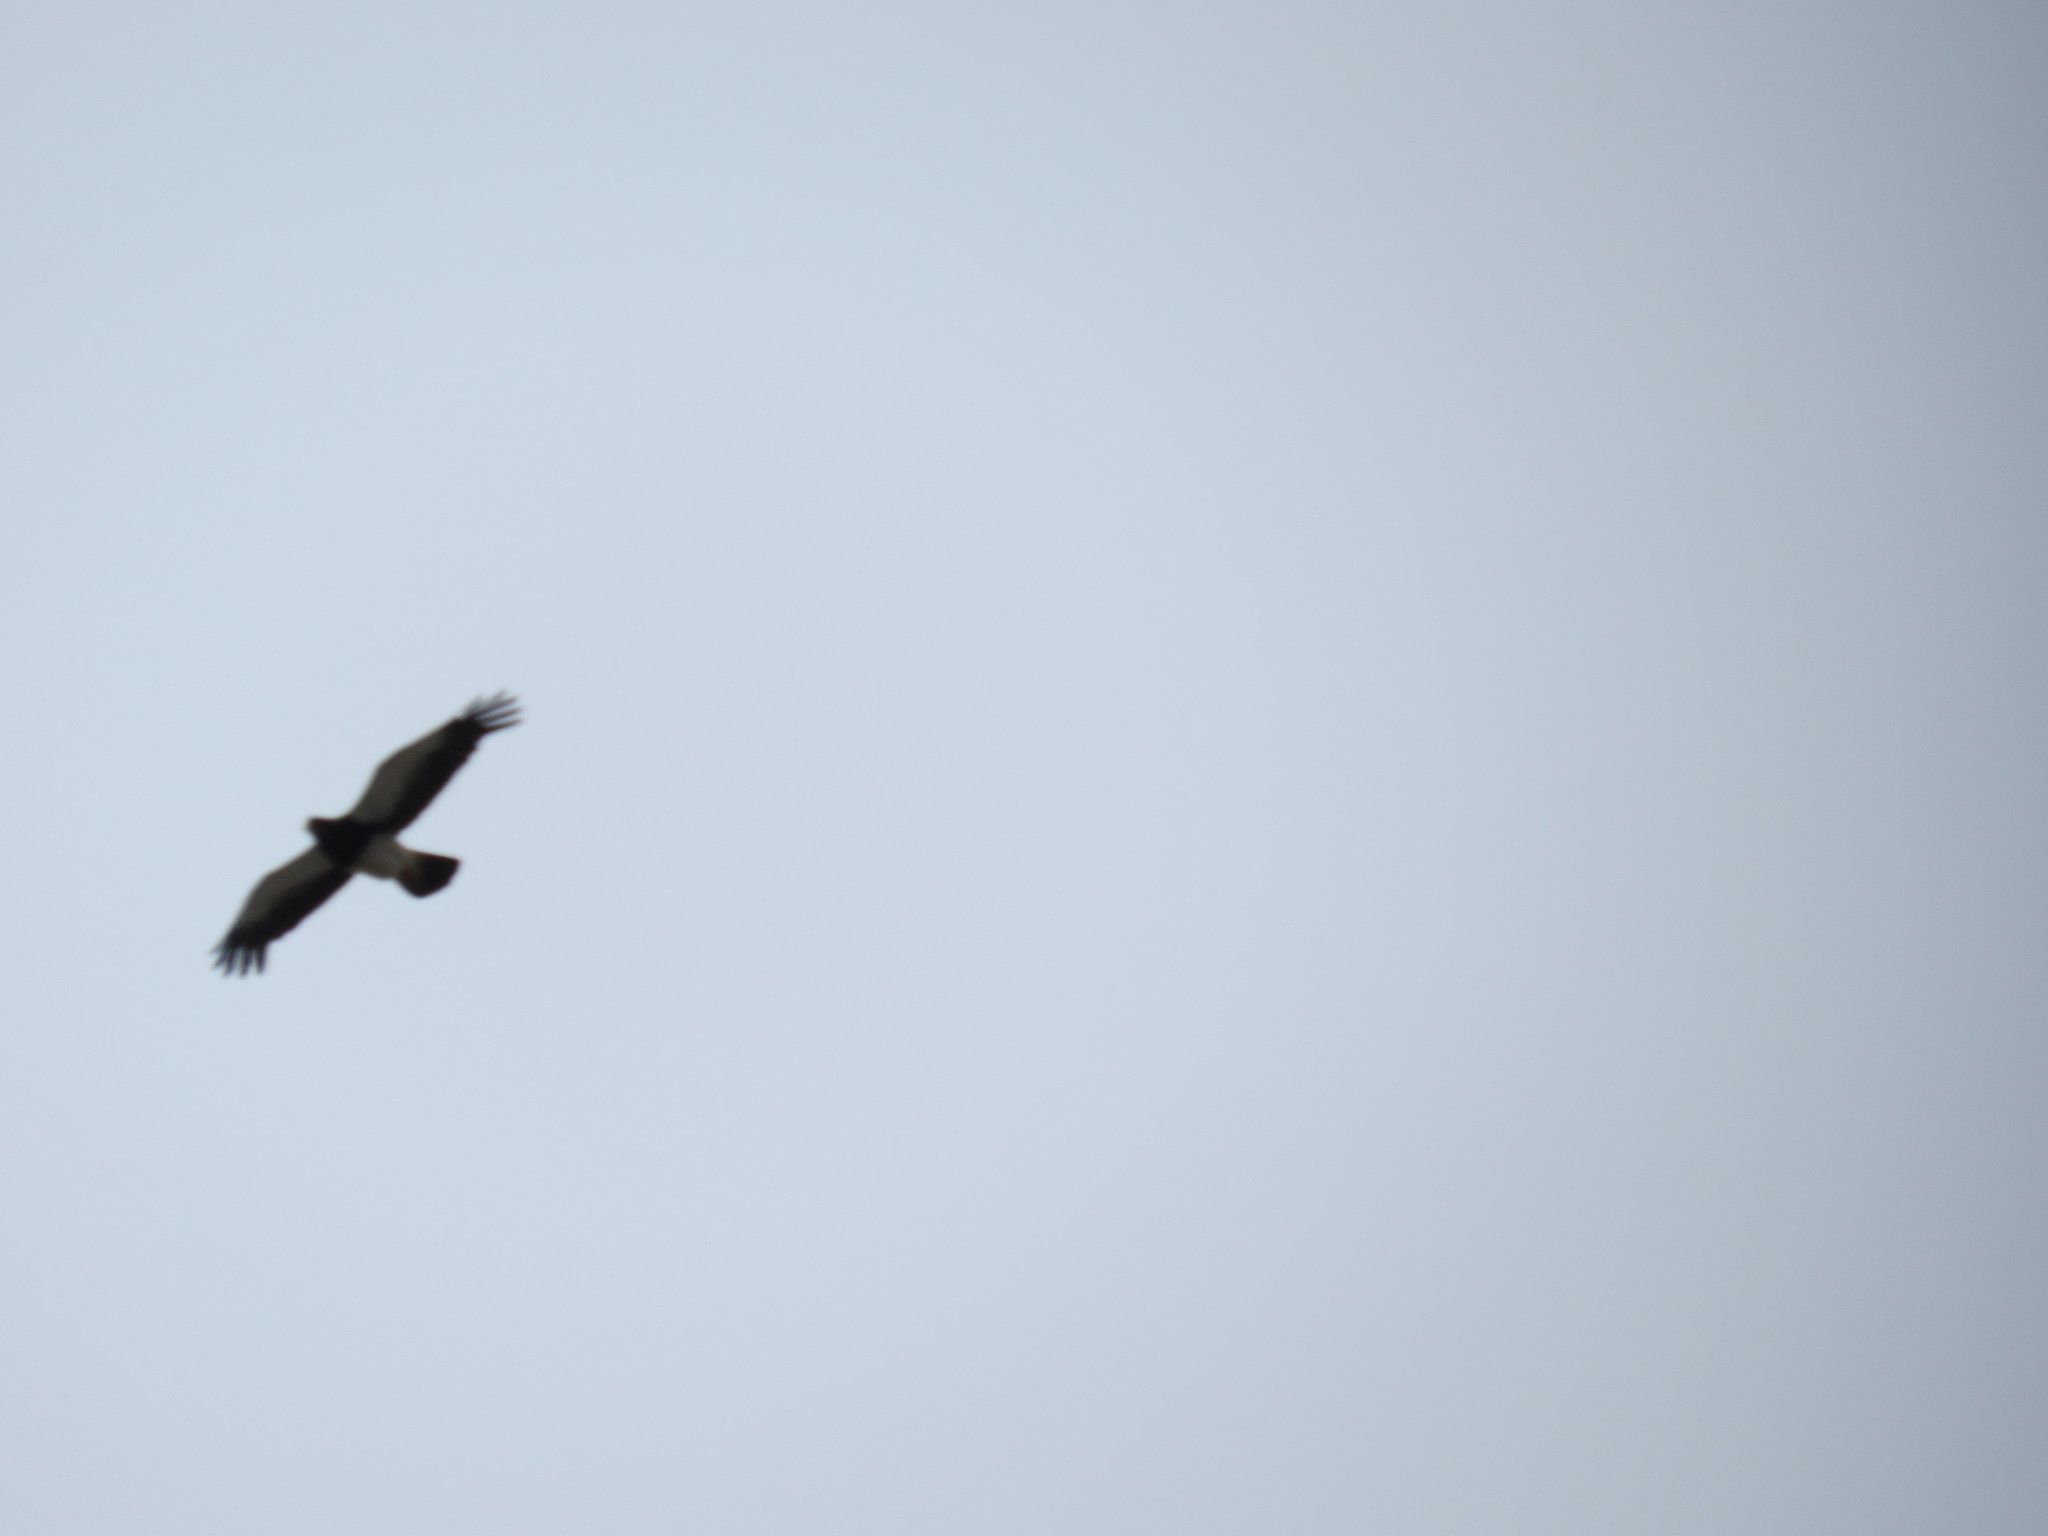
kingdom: Animalia
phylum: Chordata
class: Aves
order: Falconiformes
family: Falconidae
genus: Daptrius
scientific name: Daptrius
